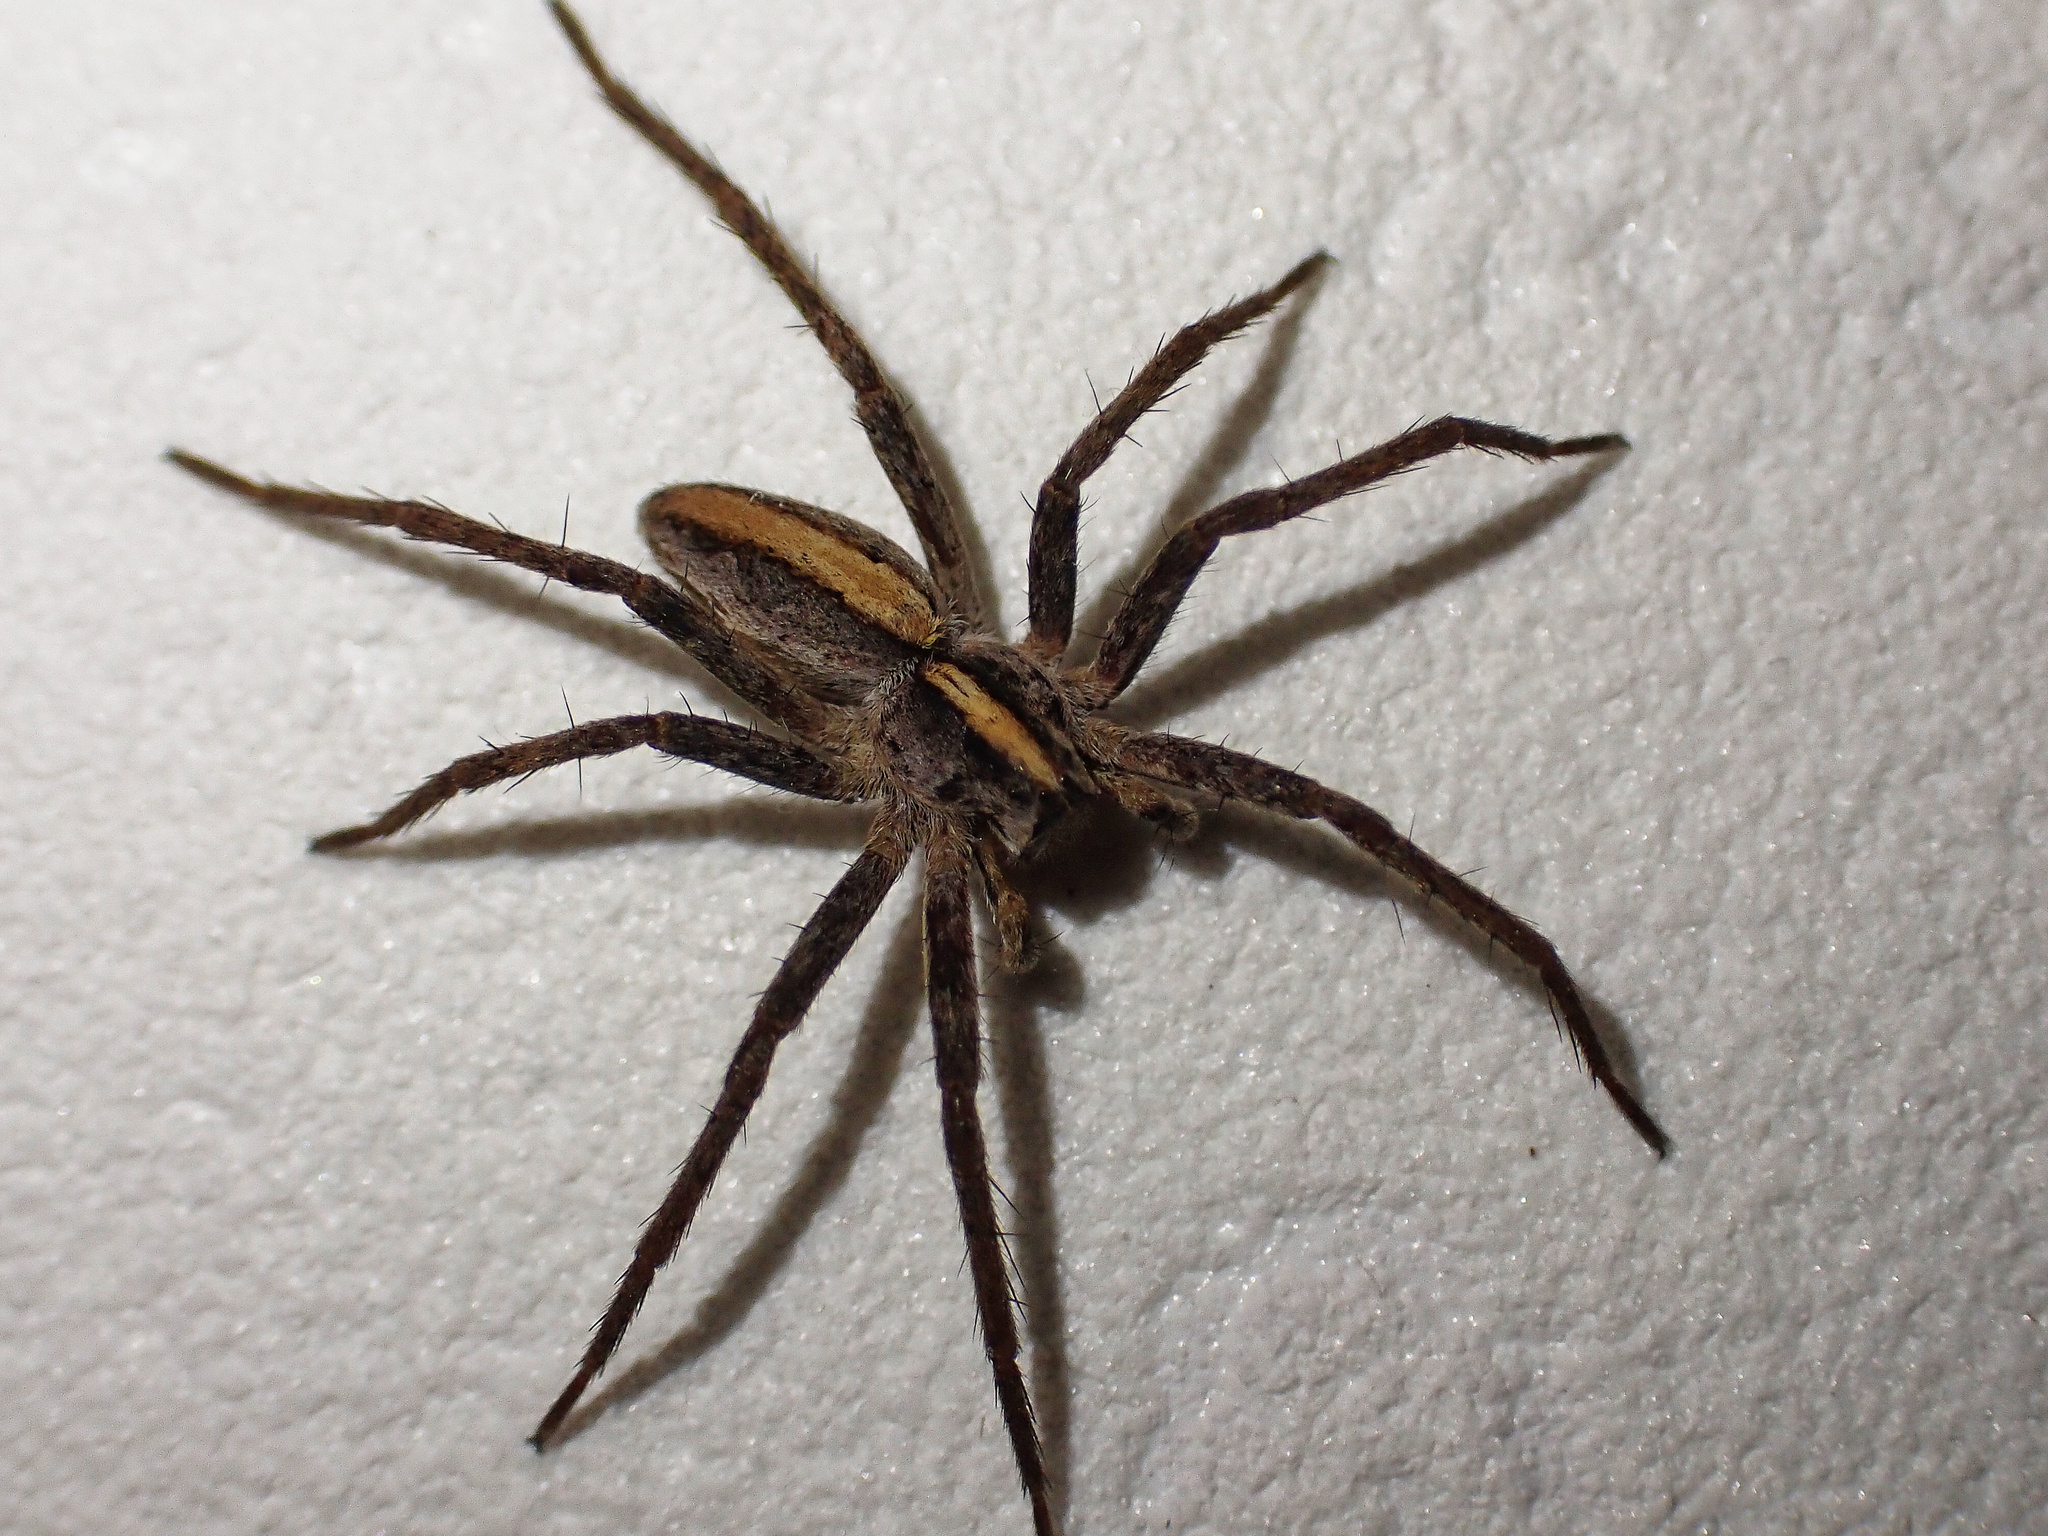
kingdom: Animalia
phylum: Arthropoda
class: Arachnida
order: Araneae
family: Pisauridae
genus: Pisaura
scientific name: Pisaura mirabilis
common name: Tent spider
